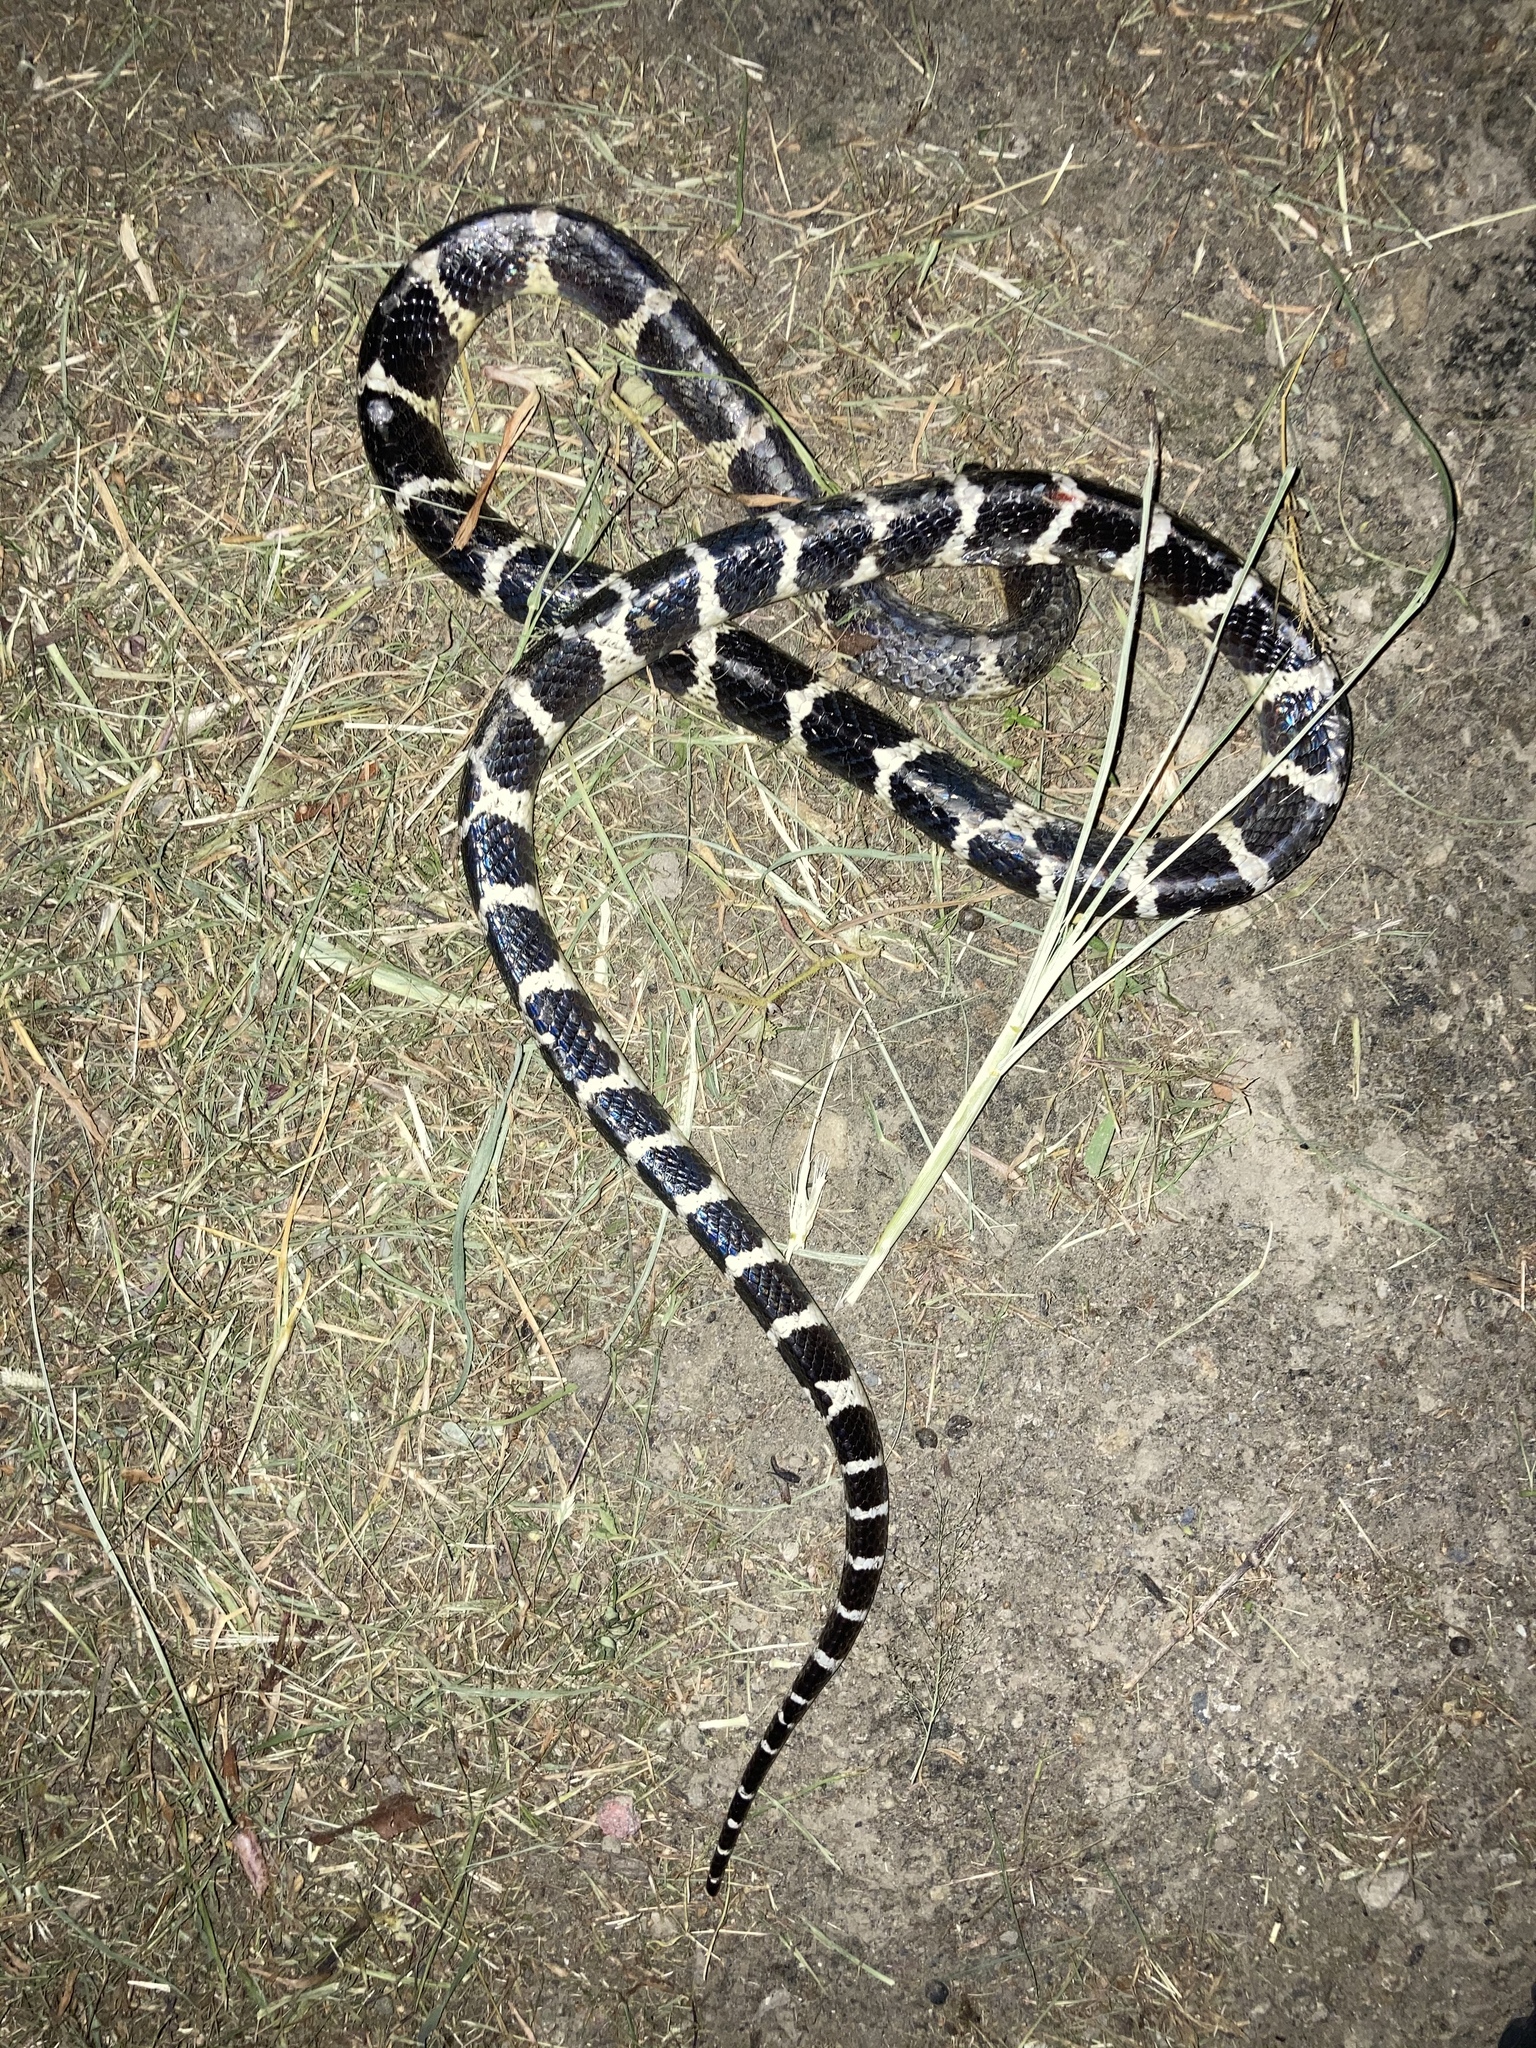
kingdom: Animalia
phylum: Chordata
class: Squamata
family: Elapidae
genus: Bungarus
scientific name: Bungarus multicinctus
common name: Many-banded krait
